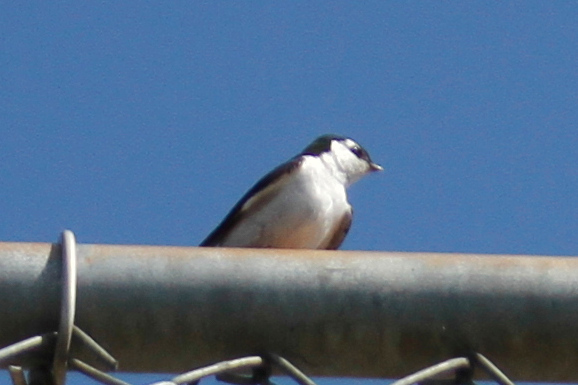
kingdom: Animalia
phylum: Chordata
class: Aves
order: Passeriformes
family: Hirundinidae
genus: Tachycineta
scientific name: Tachycineta thalassina
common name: Violet-green swallow
